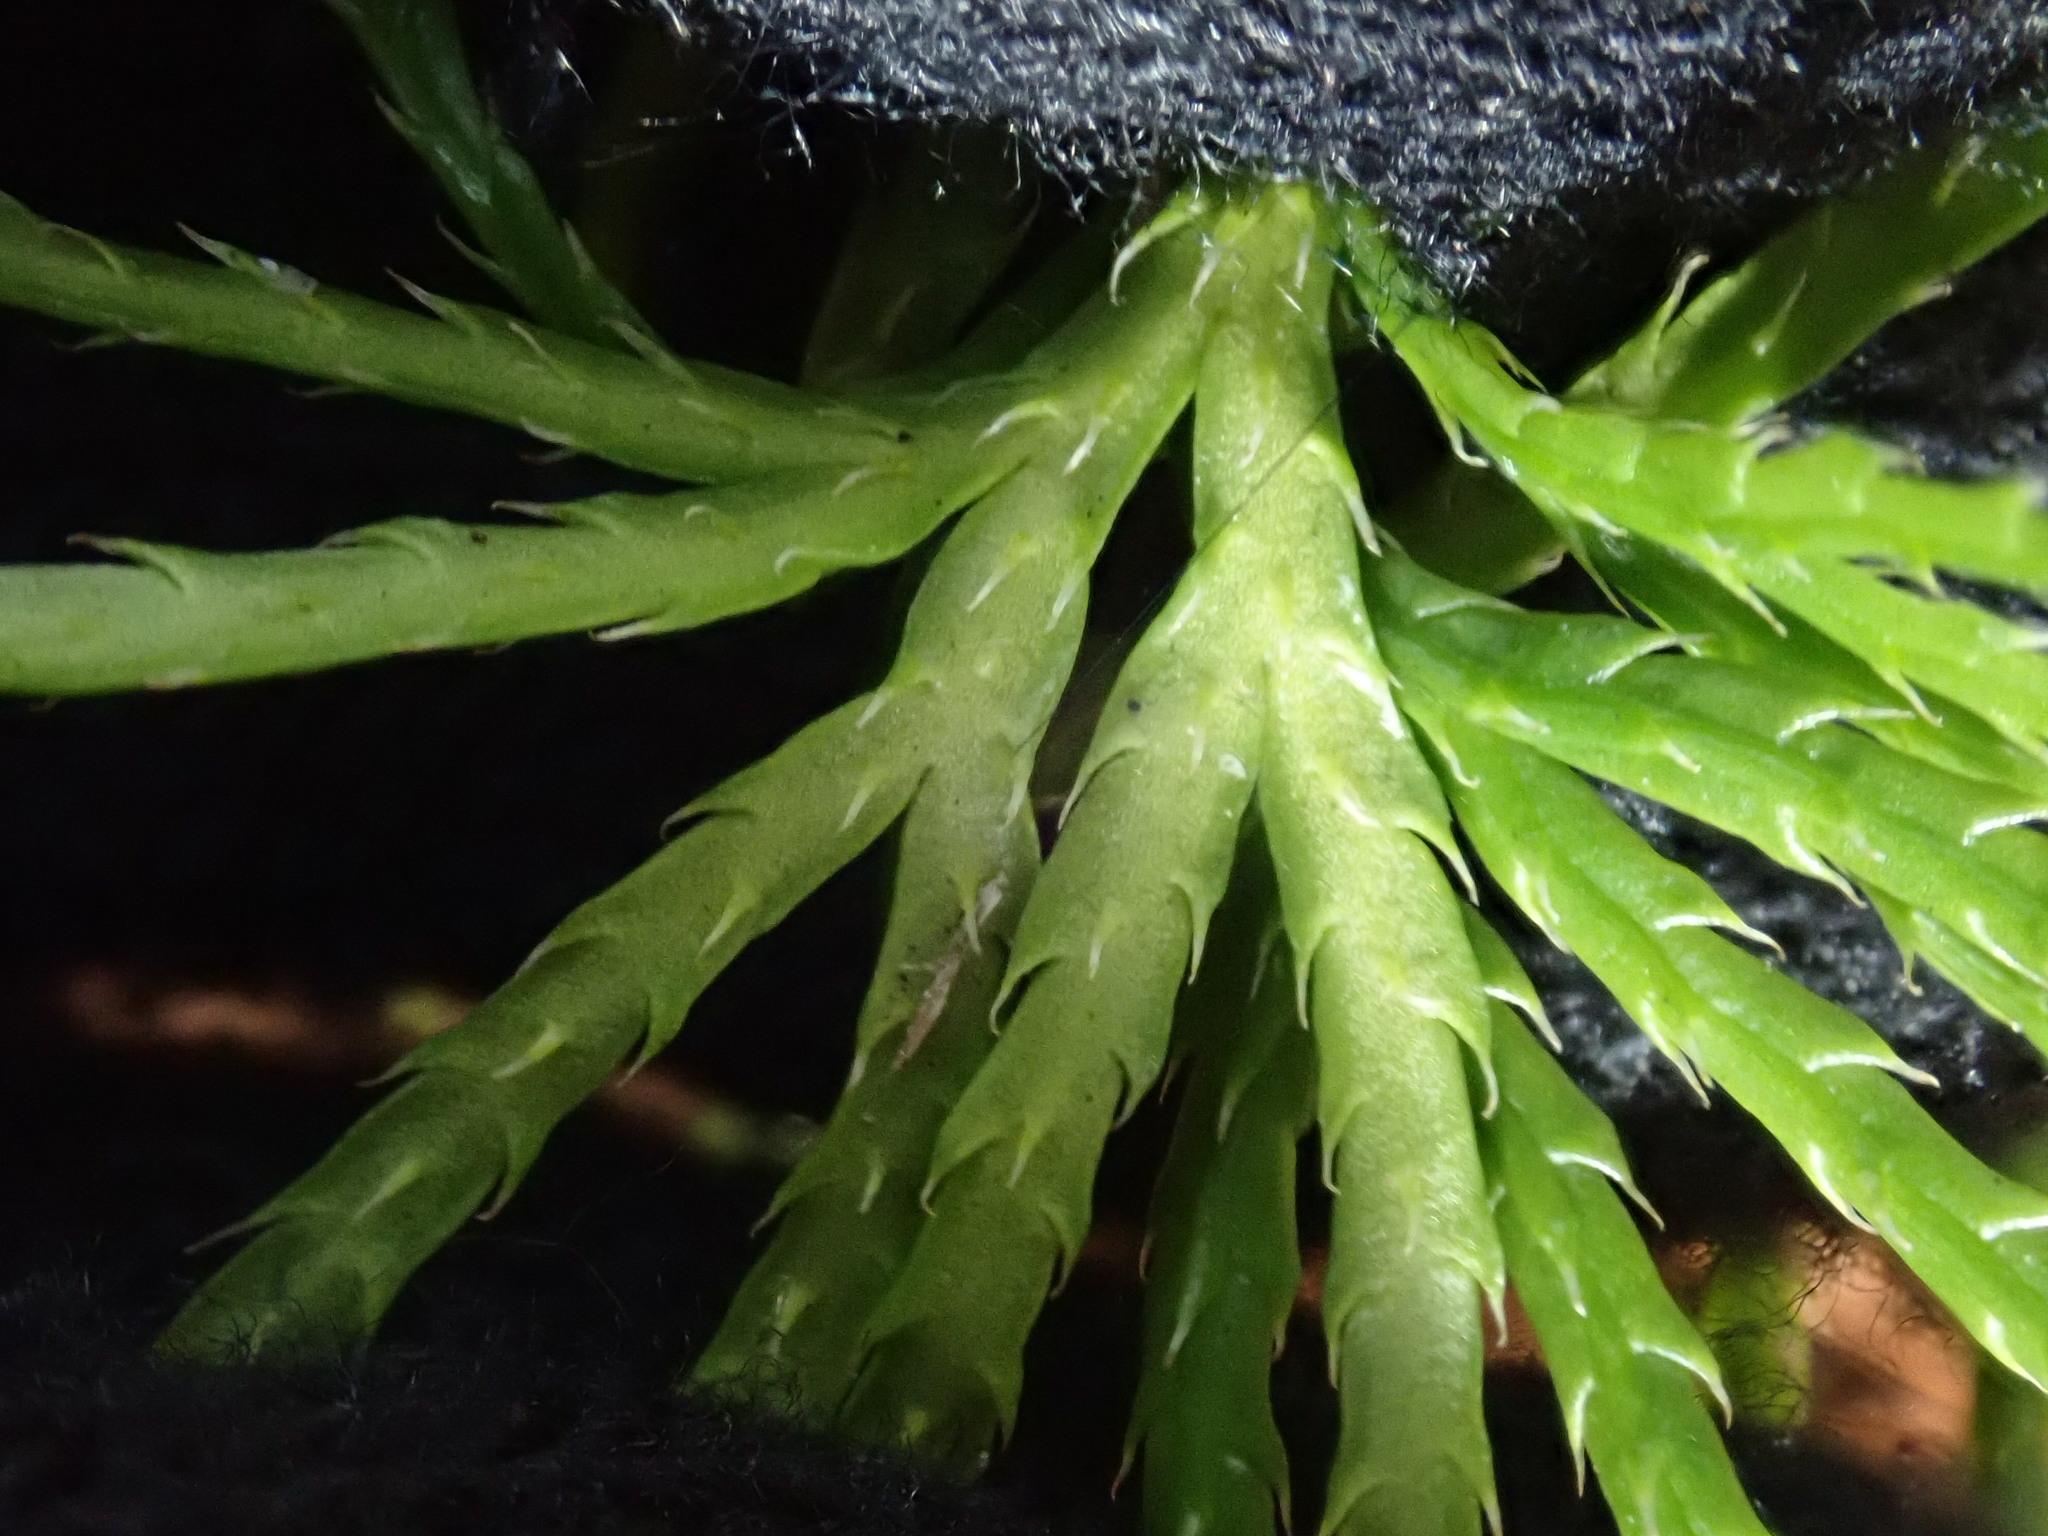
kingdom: Plantae
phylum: Tracheophyta
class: Lycopodiopsida
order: Lycopodiales
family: Lycopodiaceae
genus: Diphasiastrum
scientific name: Diphasiastrum digitatum
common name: Southern running-pine
